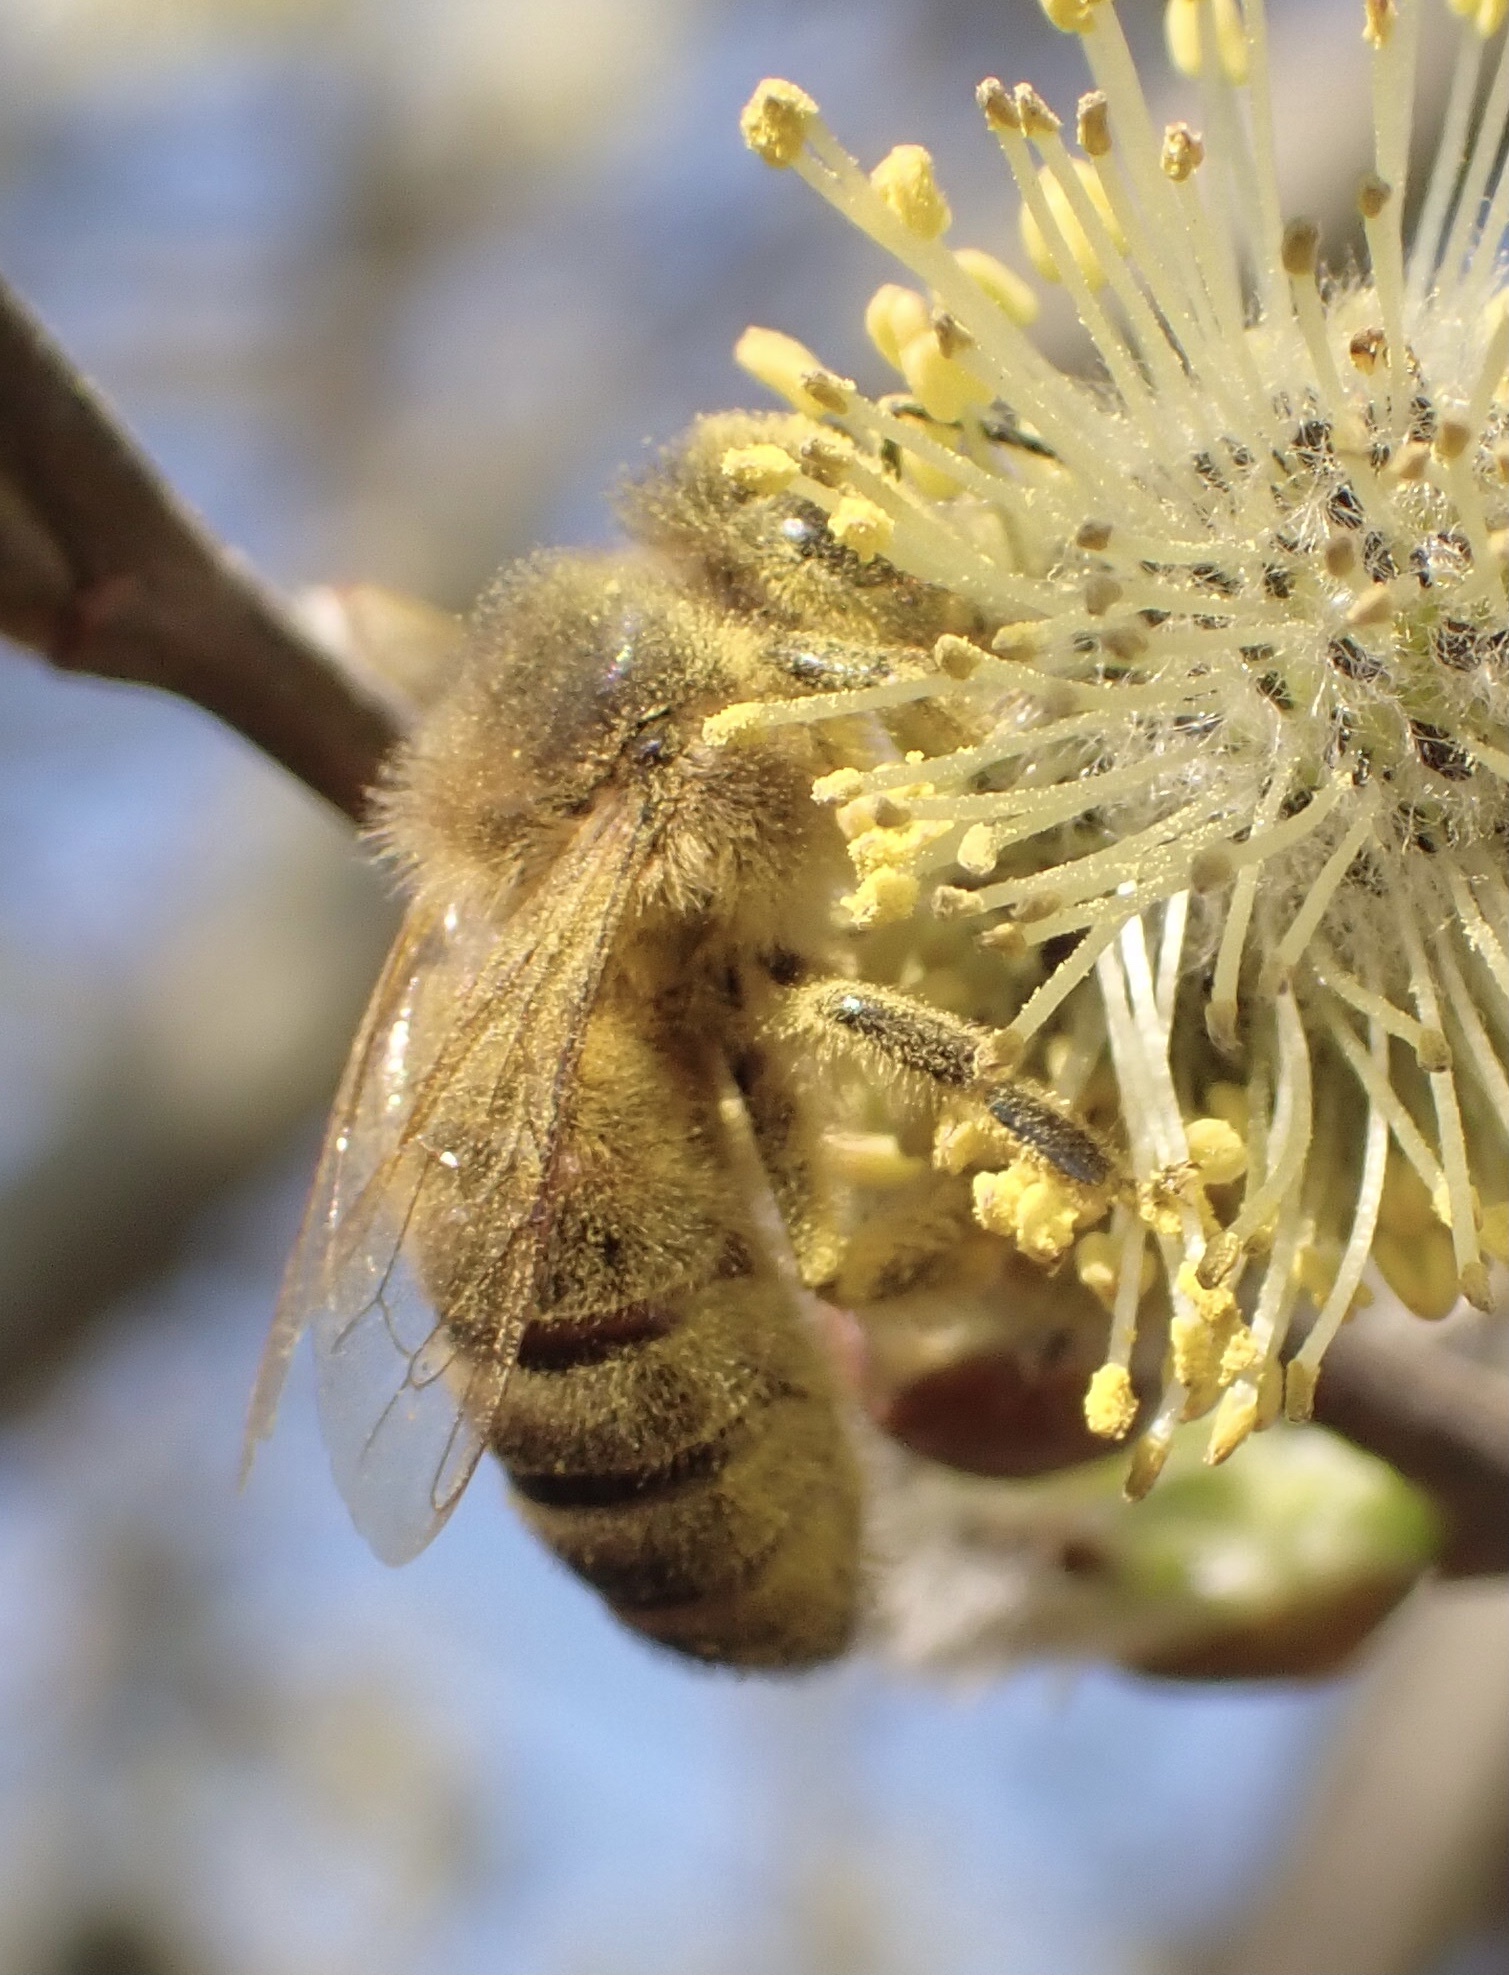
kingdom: Animalia
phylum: Arthropoda
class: Insecta
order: Hymenoptera
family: Apidae
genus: Apis
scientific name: Apis mellifera
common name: Honey bee
